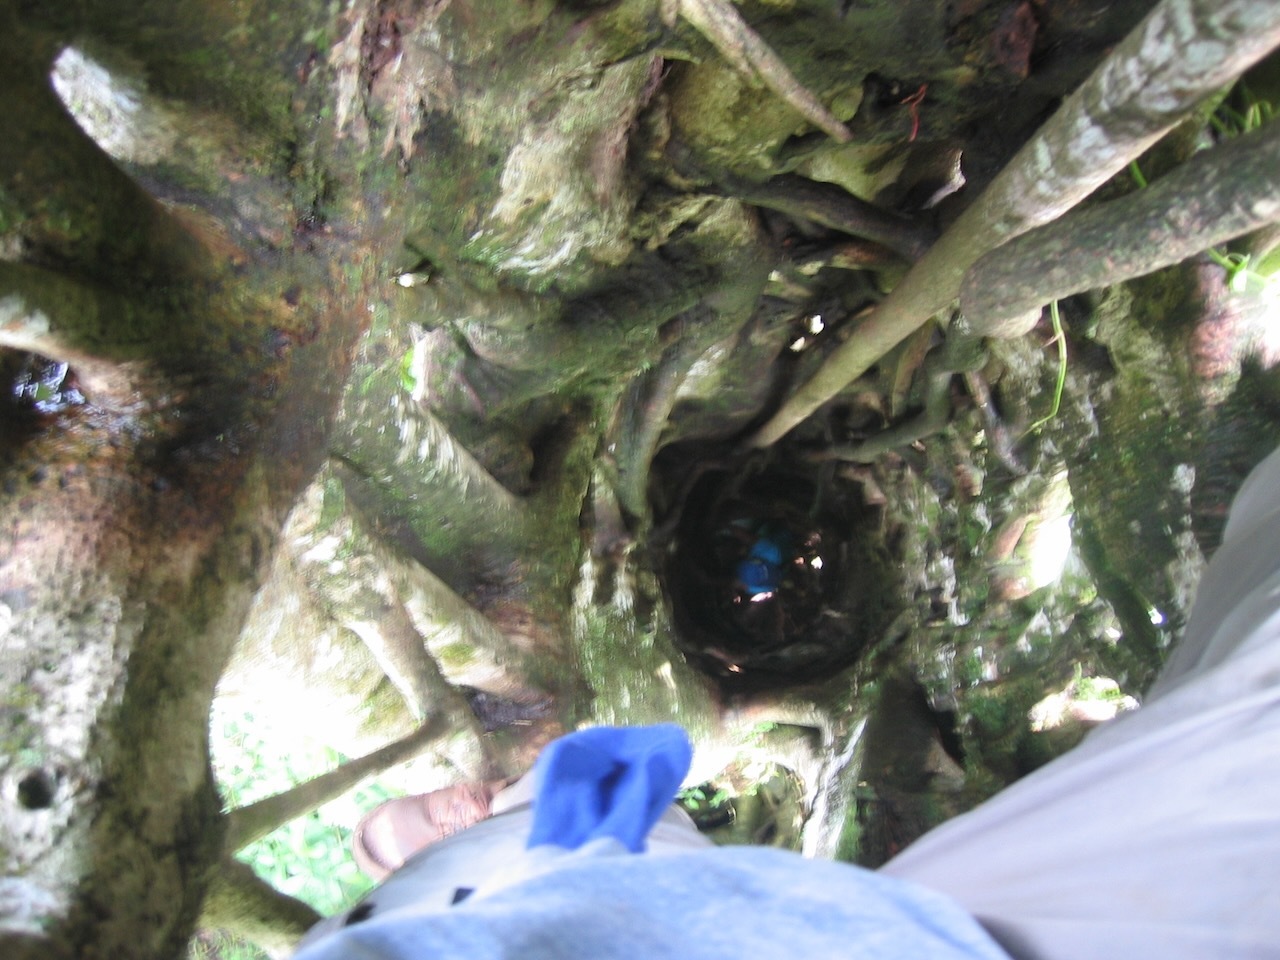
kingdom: Plantae
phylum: Tracheophyta
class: Magnoliopsida
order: Rosales
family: Moraceae
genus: Ficus
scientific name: Ficus obtusifolia
